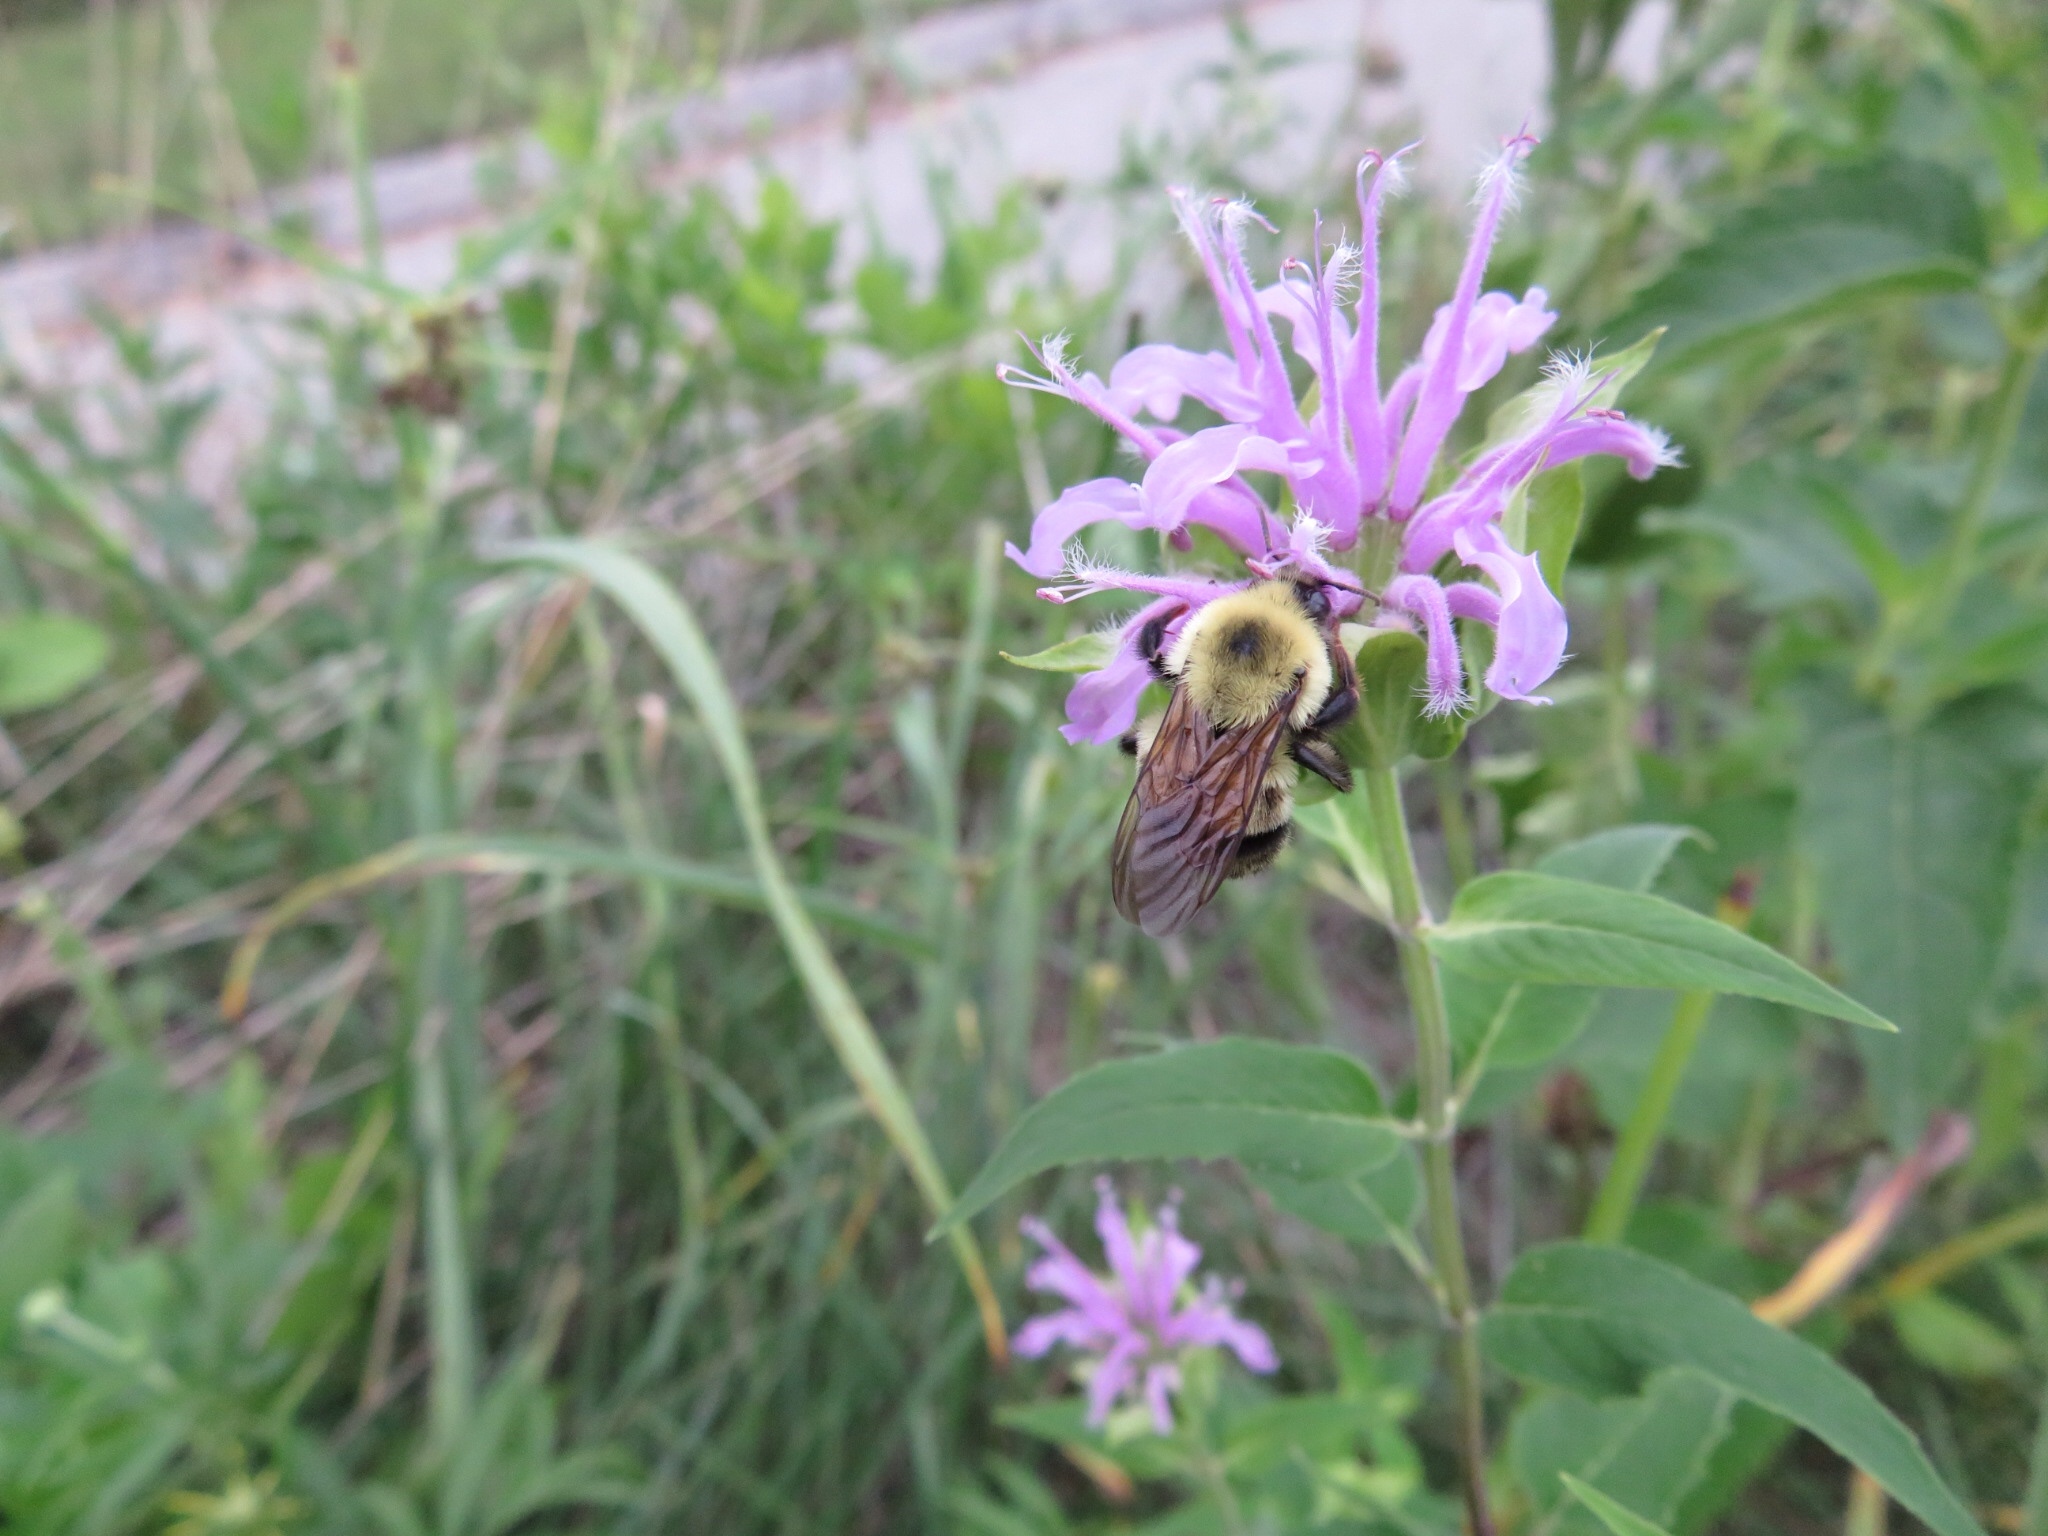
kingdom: Animalia
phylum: Arthropoda
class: Insecta
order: Hymenoptera
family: Apidae
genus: Bombus
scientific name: Bombus bimaculatus
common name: Two-spotted bumble bee
